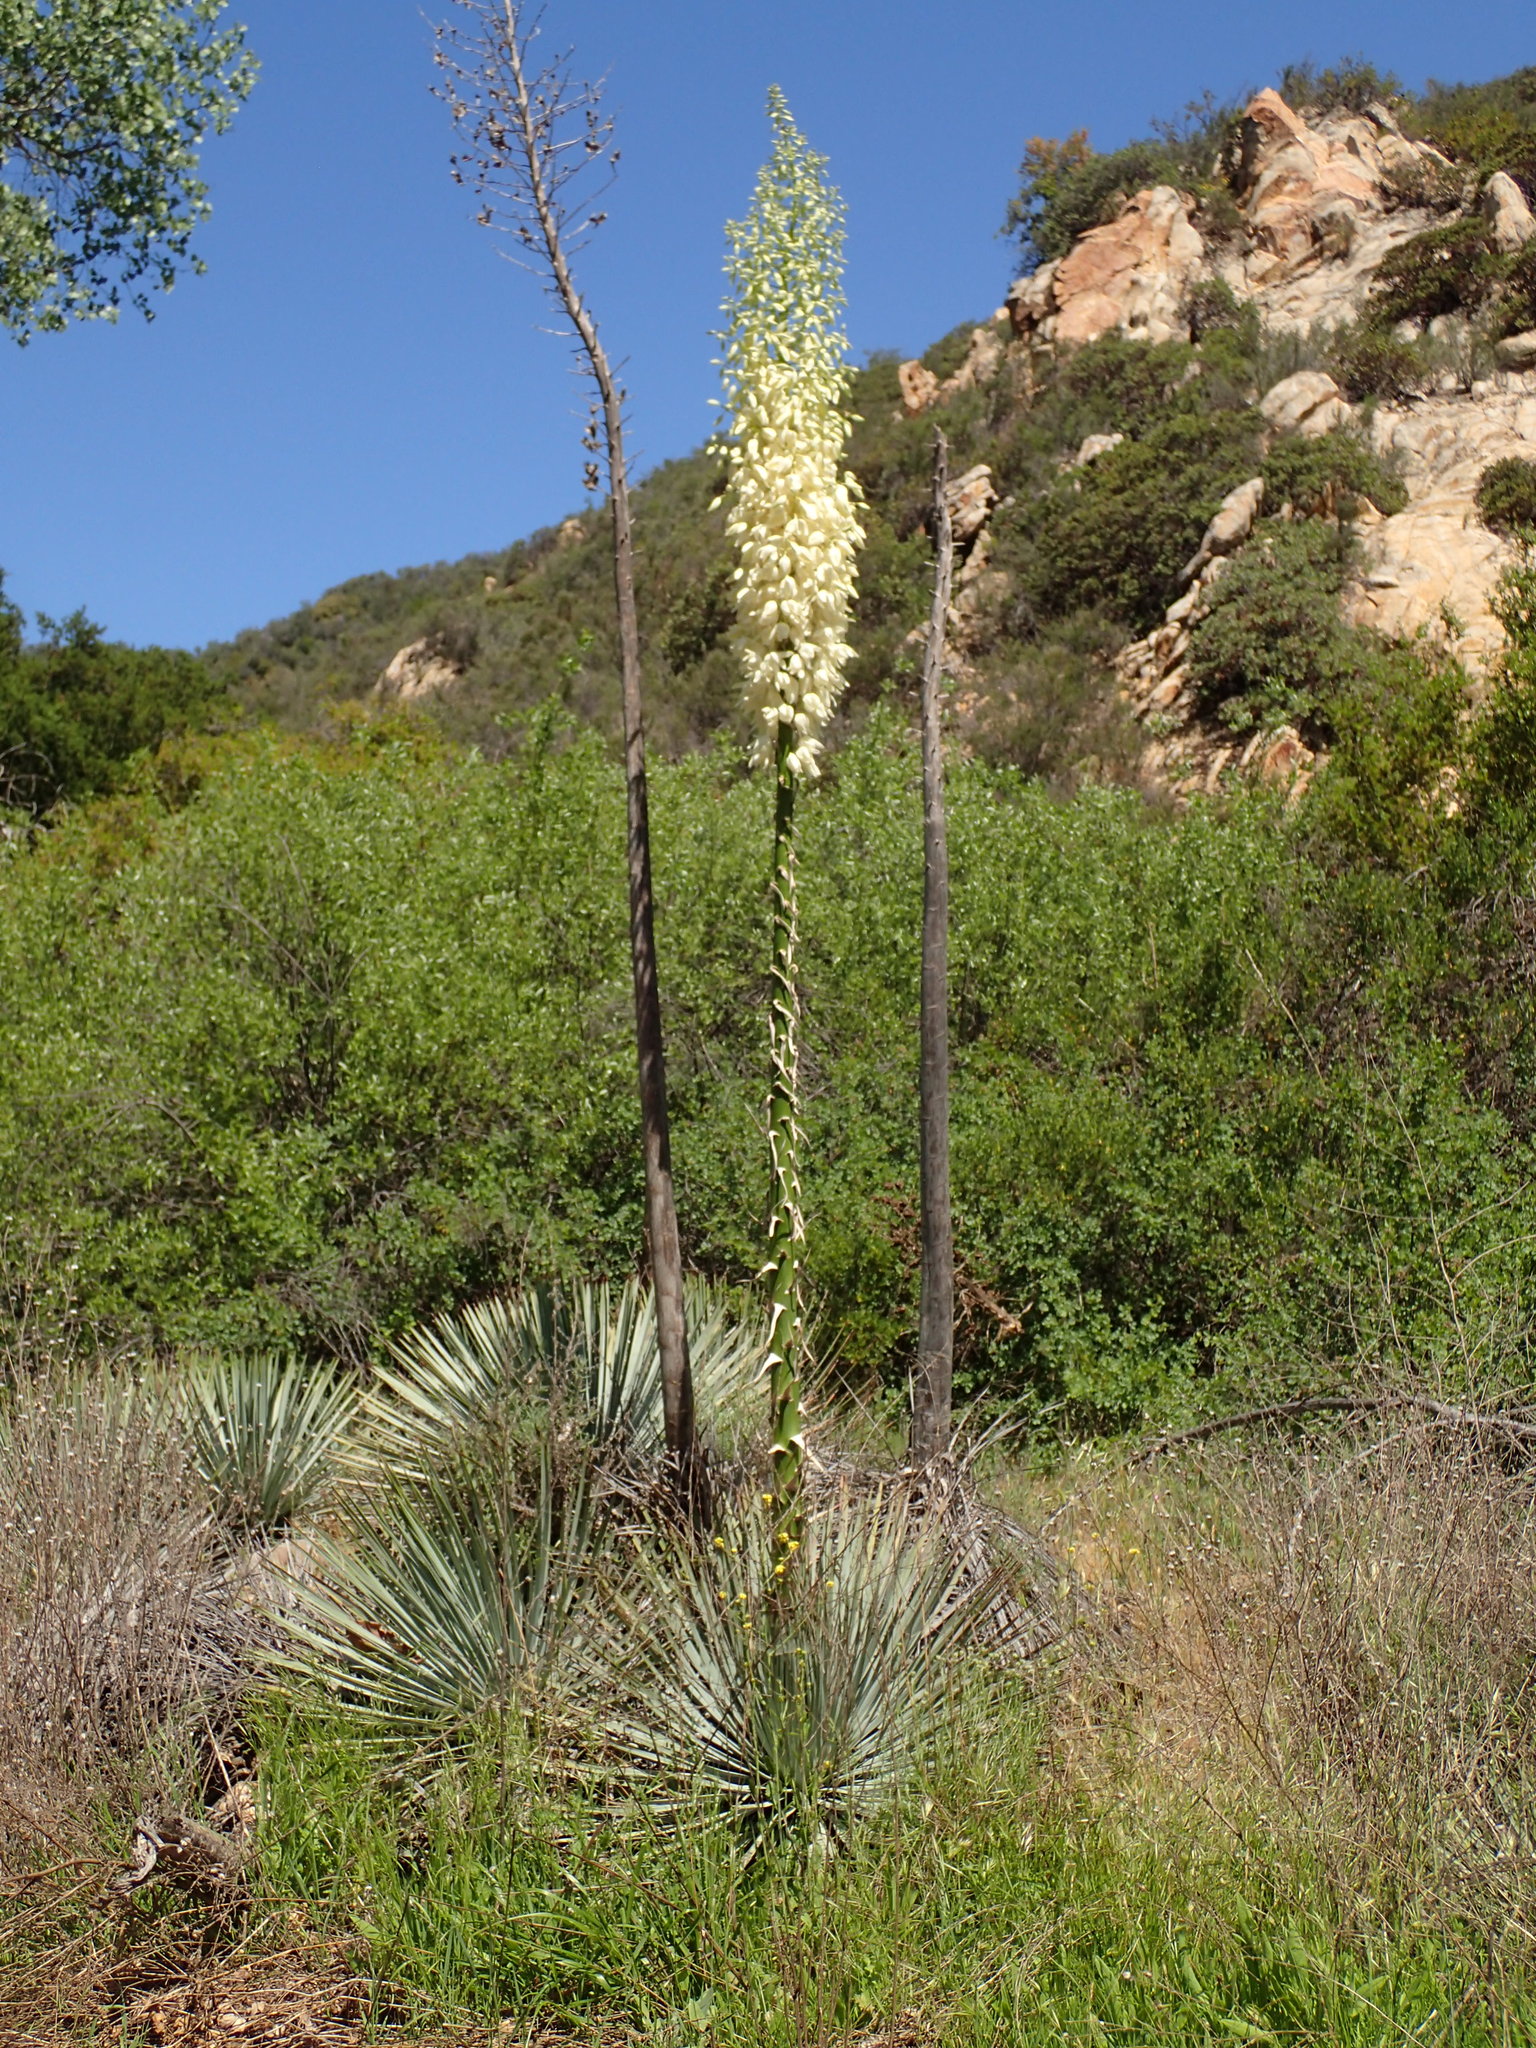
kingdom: Plantae
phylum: Tracheophyta
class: Liliopsida
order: Asparagales
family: Asparagaceae
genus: Hesperoyucca
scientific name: Hesperoyucca whipplei
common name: Our lord's-candle
